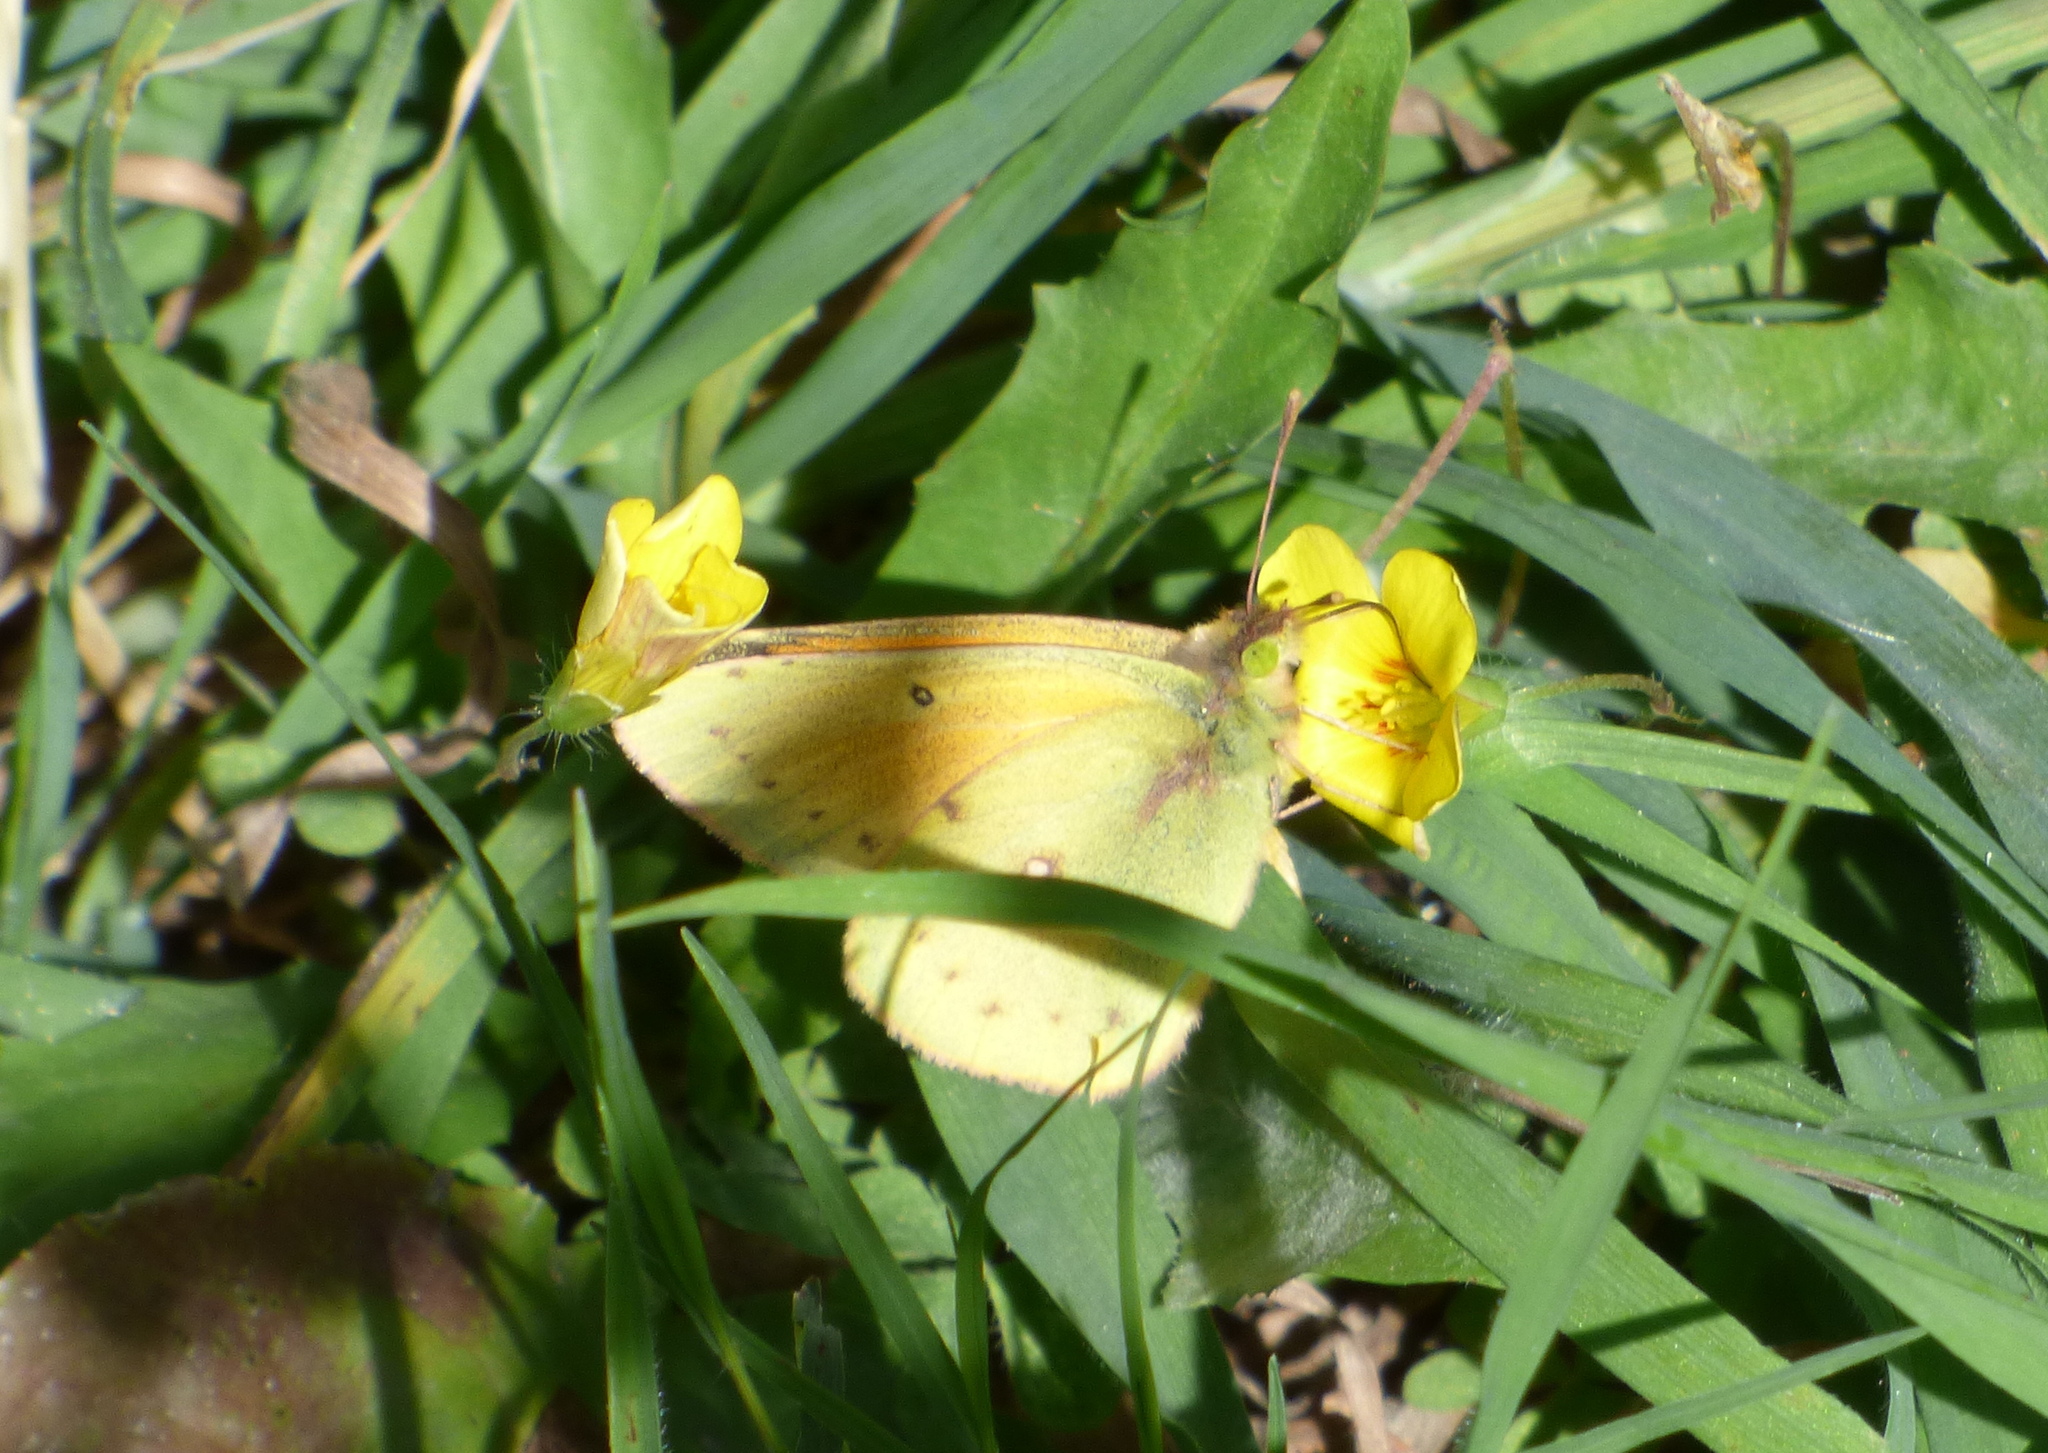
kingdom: Animalia
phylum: Arthropoda
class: Insecta
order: Lepidoptera
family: Pieridae
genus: Colias
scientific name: Colias lesbia
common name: Lesbia clouded yellow
